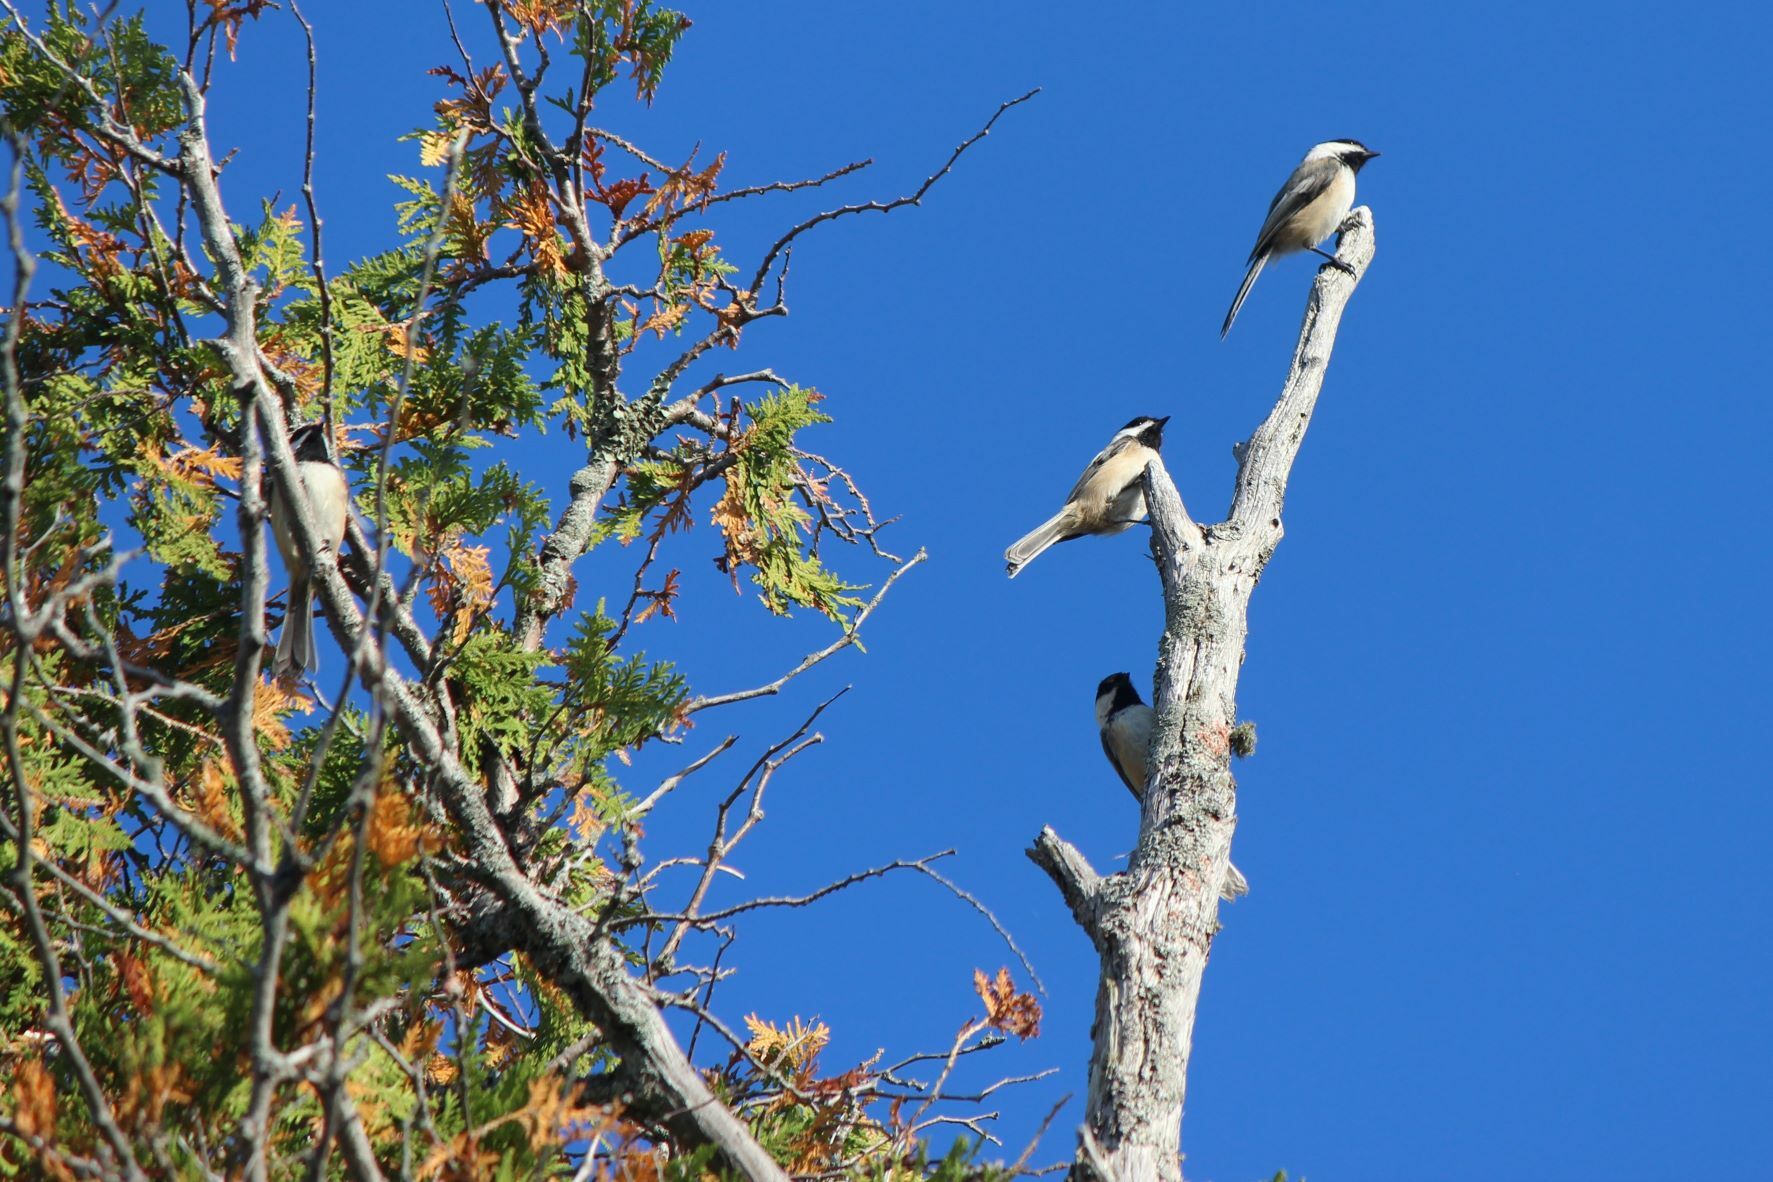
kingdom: Animalia
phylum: Chordata
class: Aves
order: Passeriformes
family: Paridae
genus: Poecile
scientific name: Poecile atricapillus
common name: Black-capped chickadee
